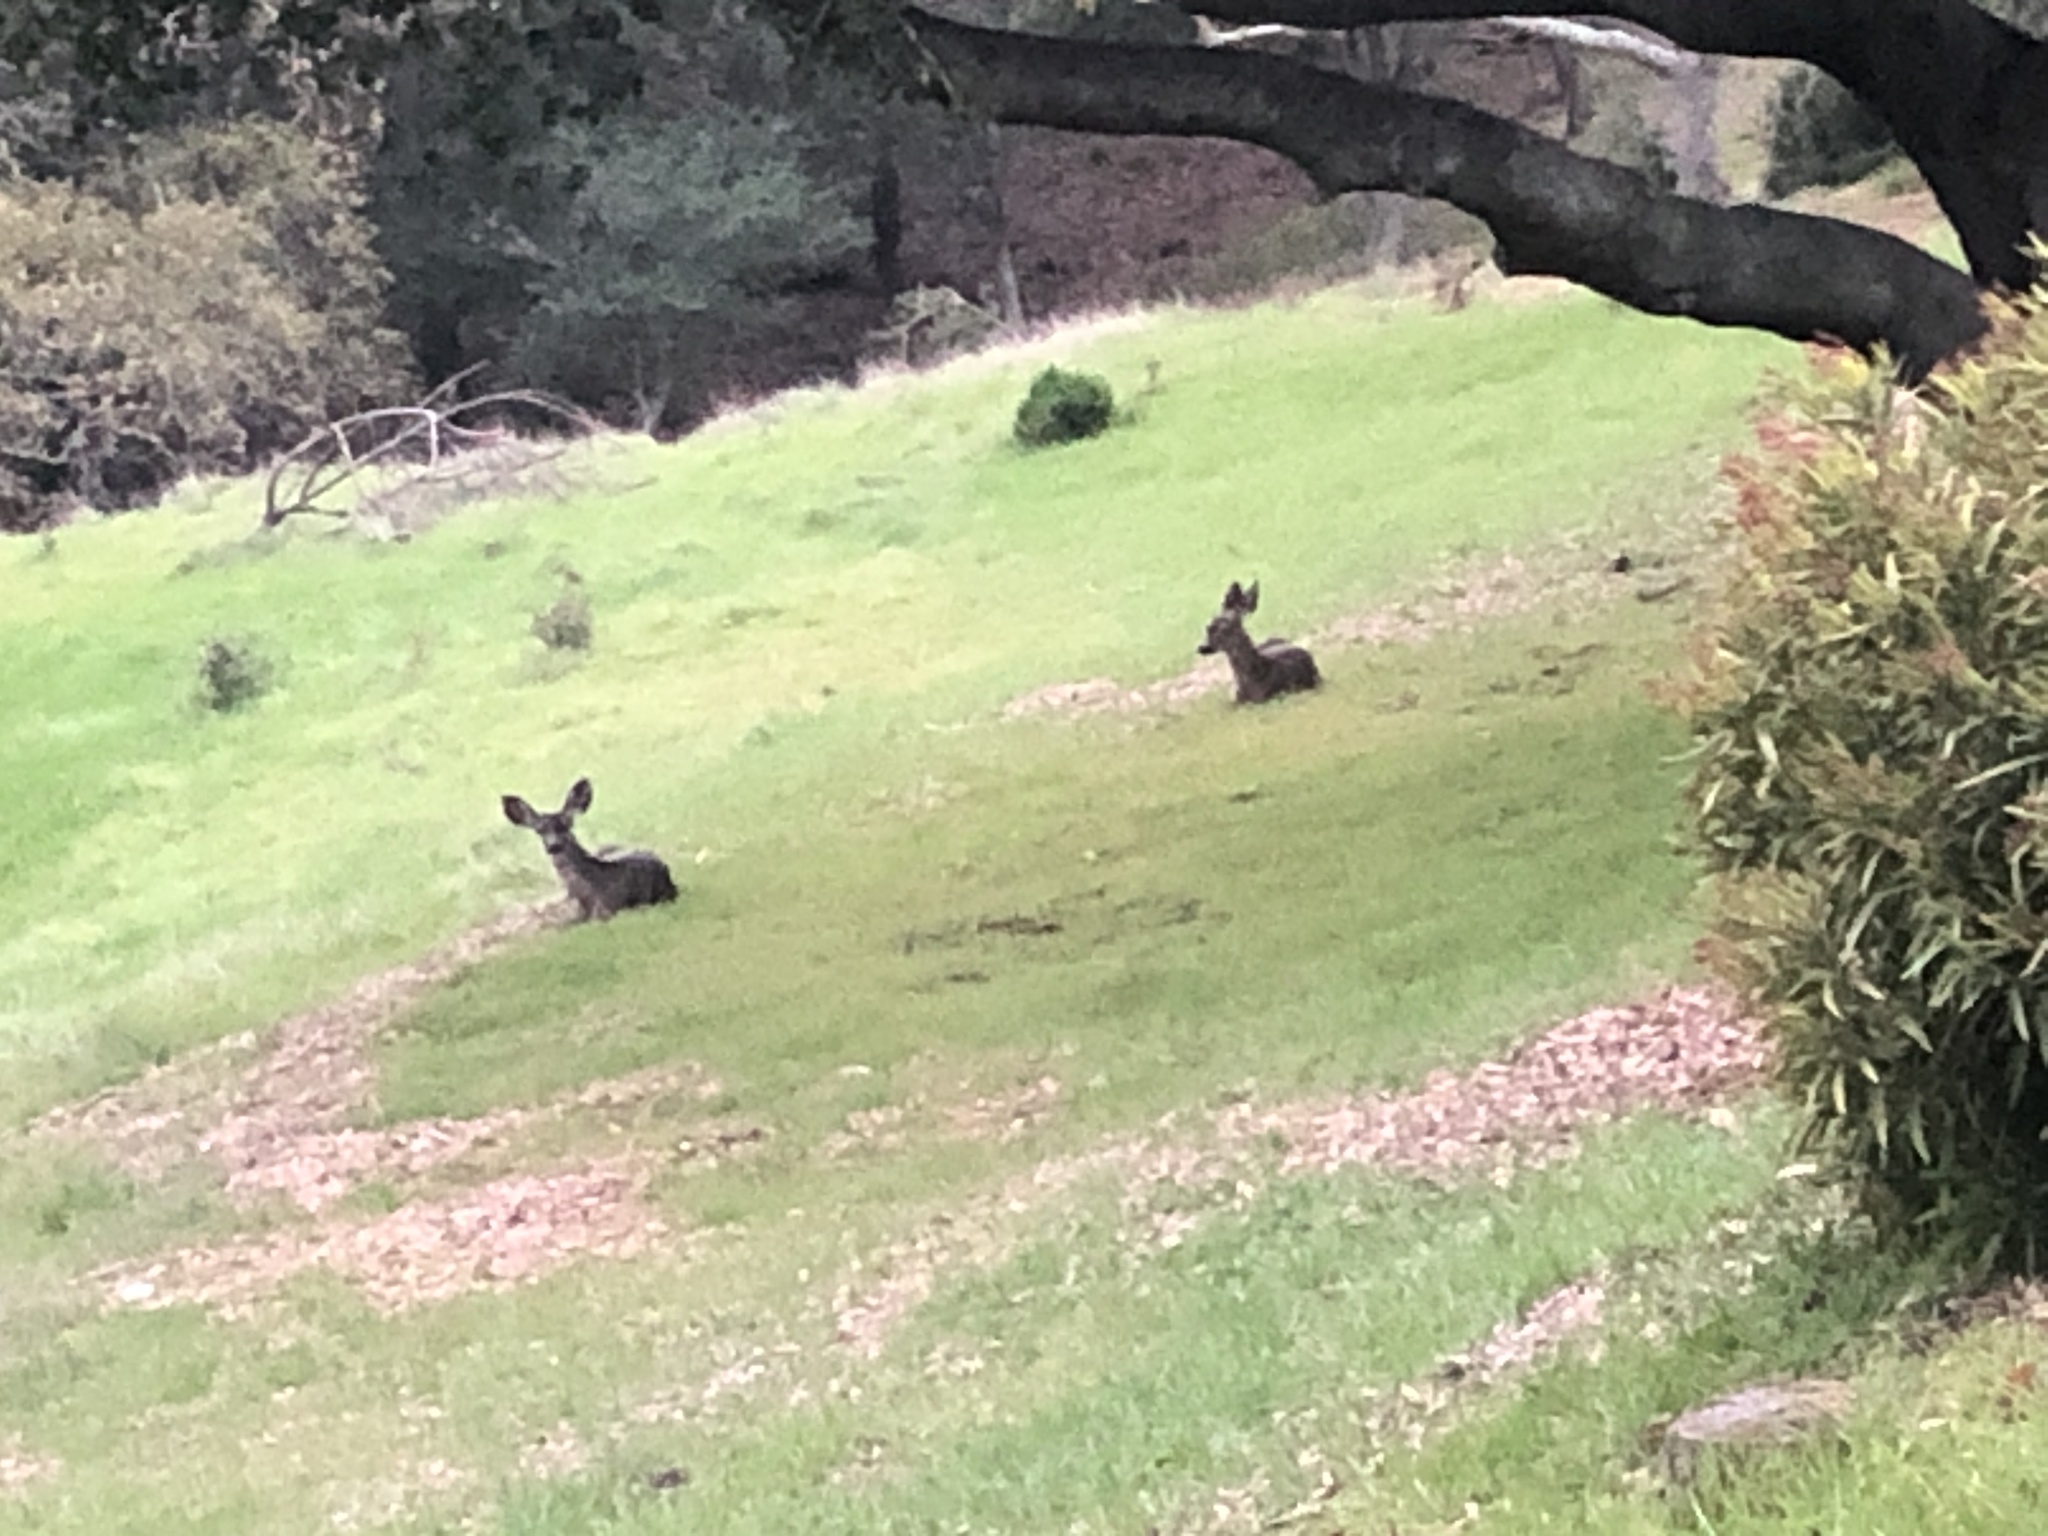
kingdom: Animalia
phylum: Chordata
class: Mammalia
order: Artiodactyla
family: Cervidae
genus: Odocoileus
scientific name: Odocoileus hemionus
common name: Mule deer
